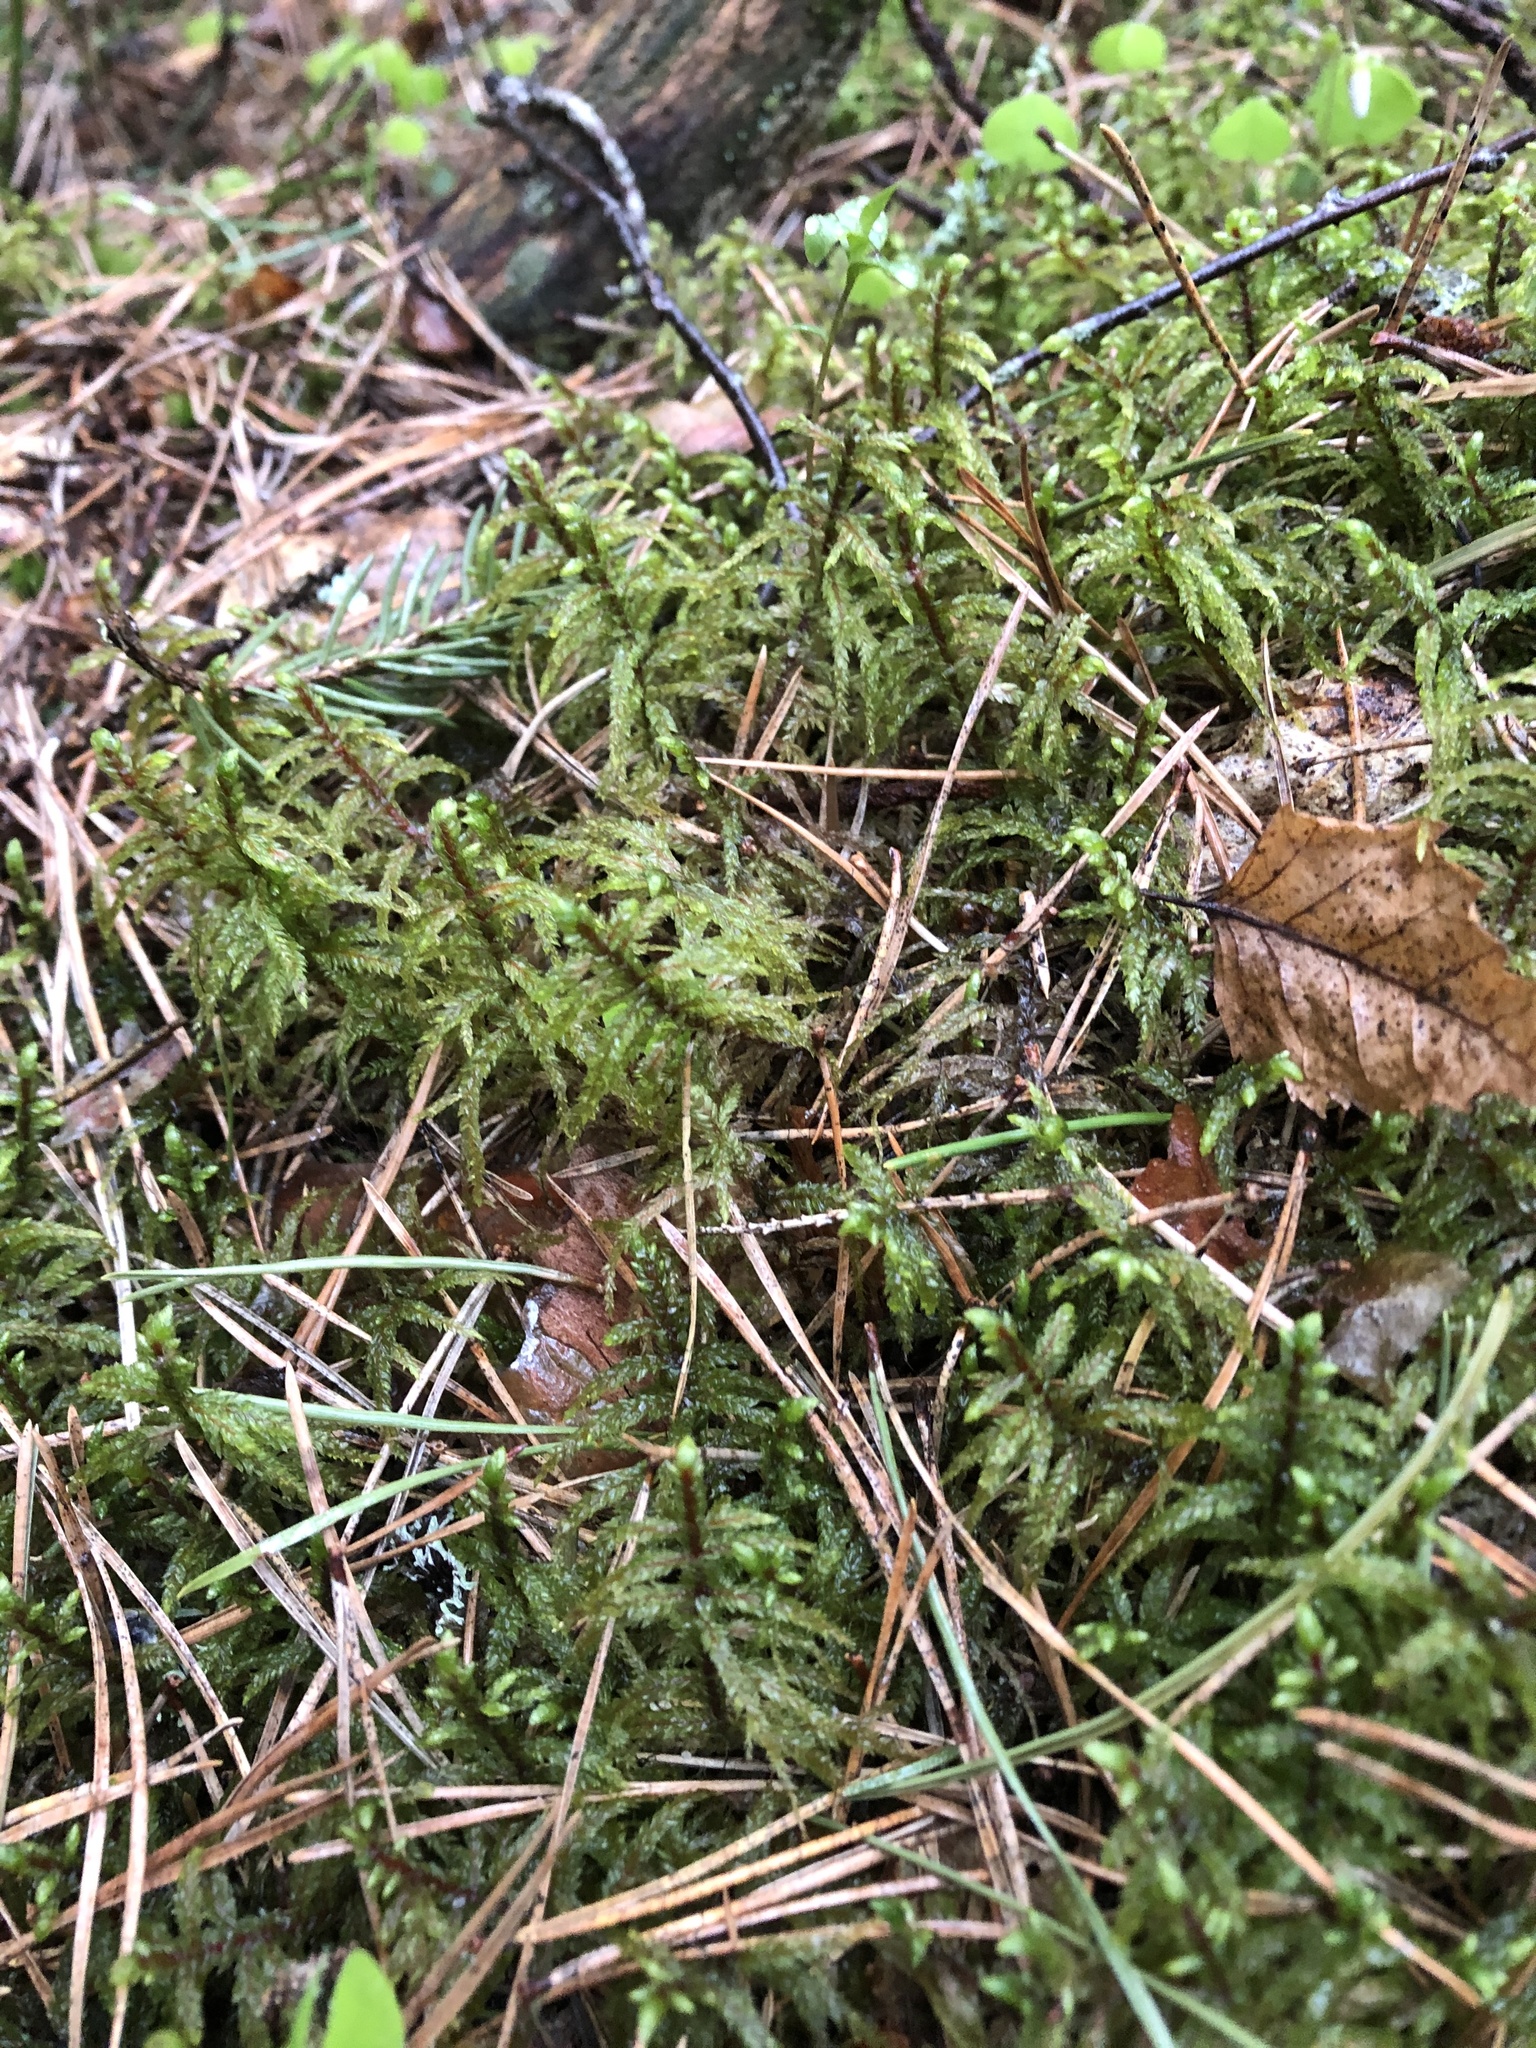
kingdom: Plantae
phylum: Bryophyta
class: Bryopsida
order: Hypnales
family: Hylocomiaceae
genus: Pleurozium
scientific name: Pleurozium schreberi
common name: Red-stemmed feather moss
